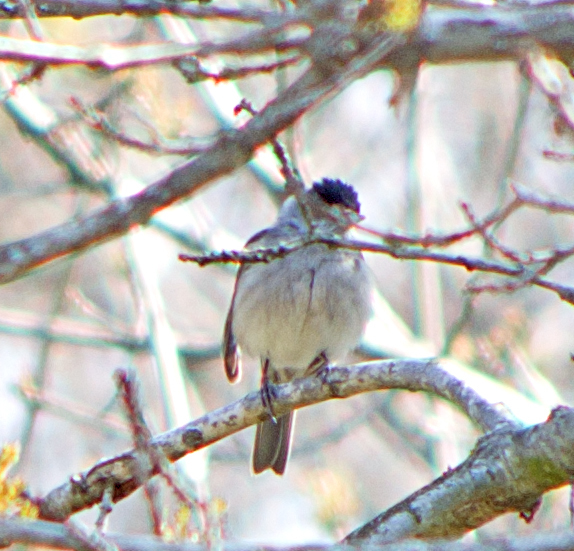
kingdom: Animalia
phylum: Chordata
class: Aves
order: Passeriformes
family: Sylviidae
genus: Sylvia
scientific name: Sylvia atricapilla
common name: Eurasian blackcap
